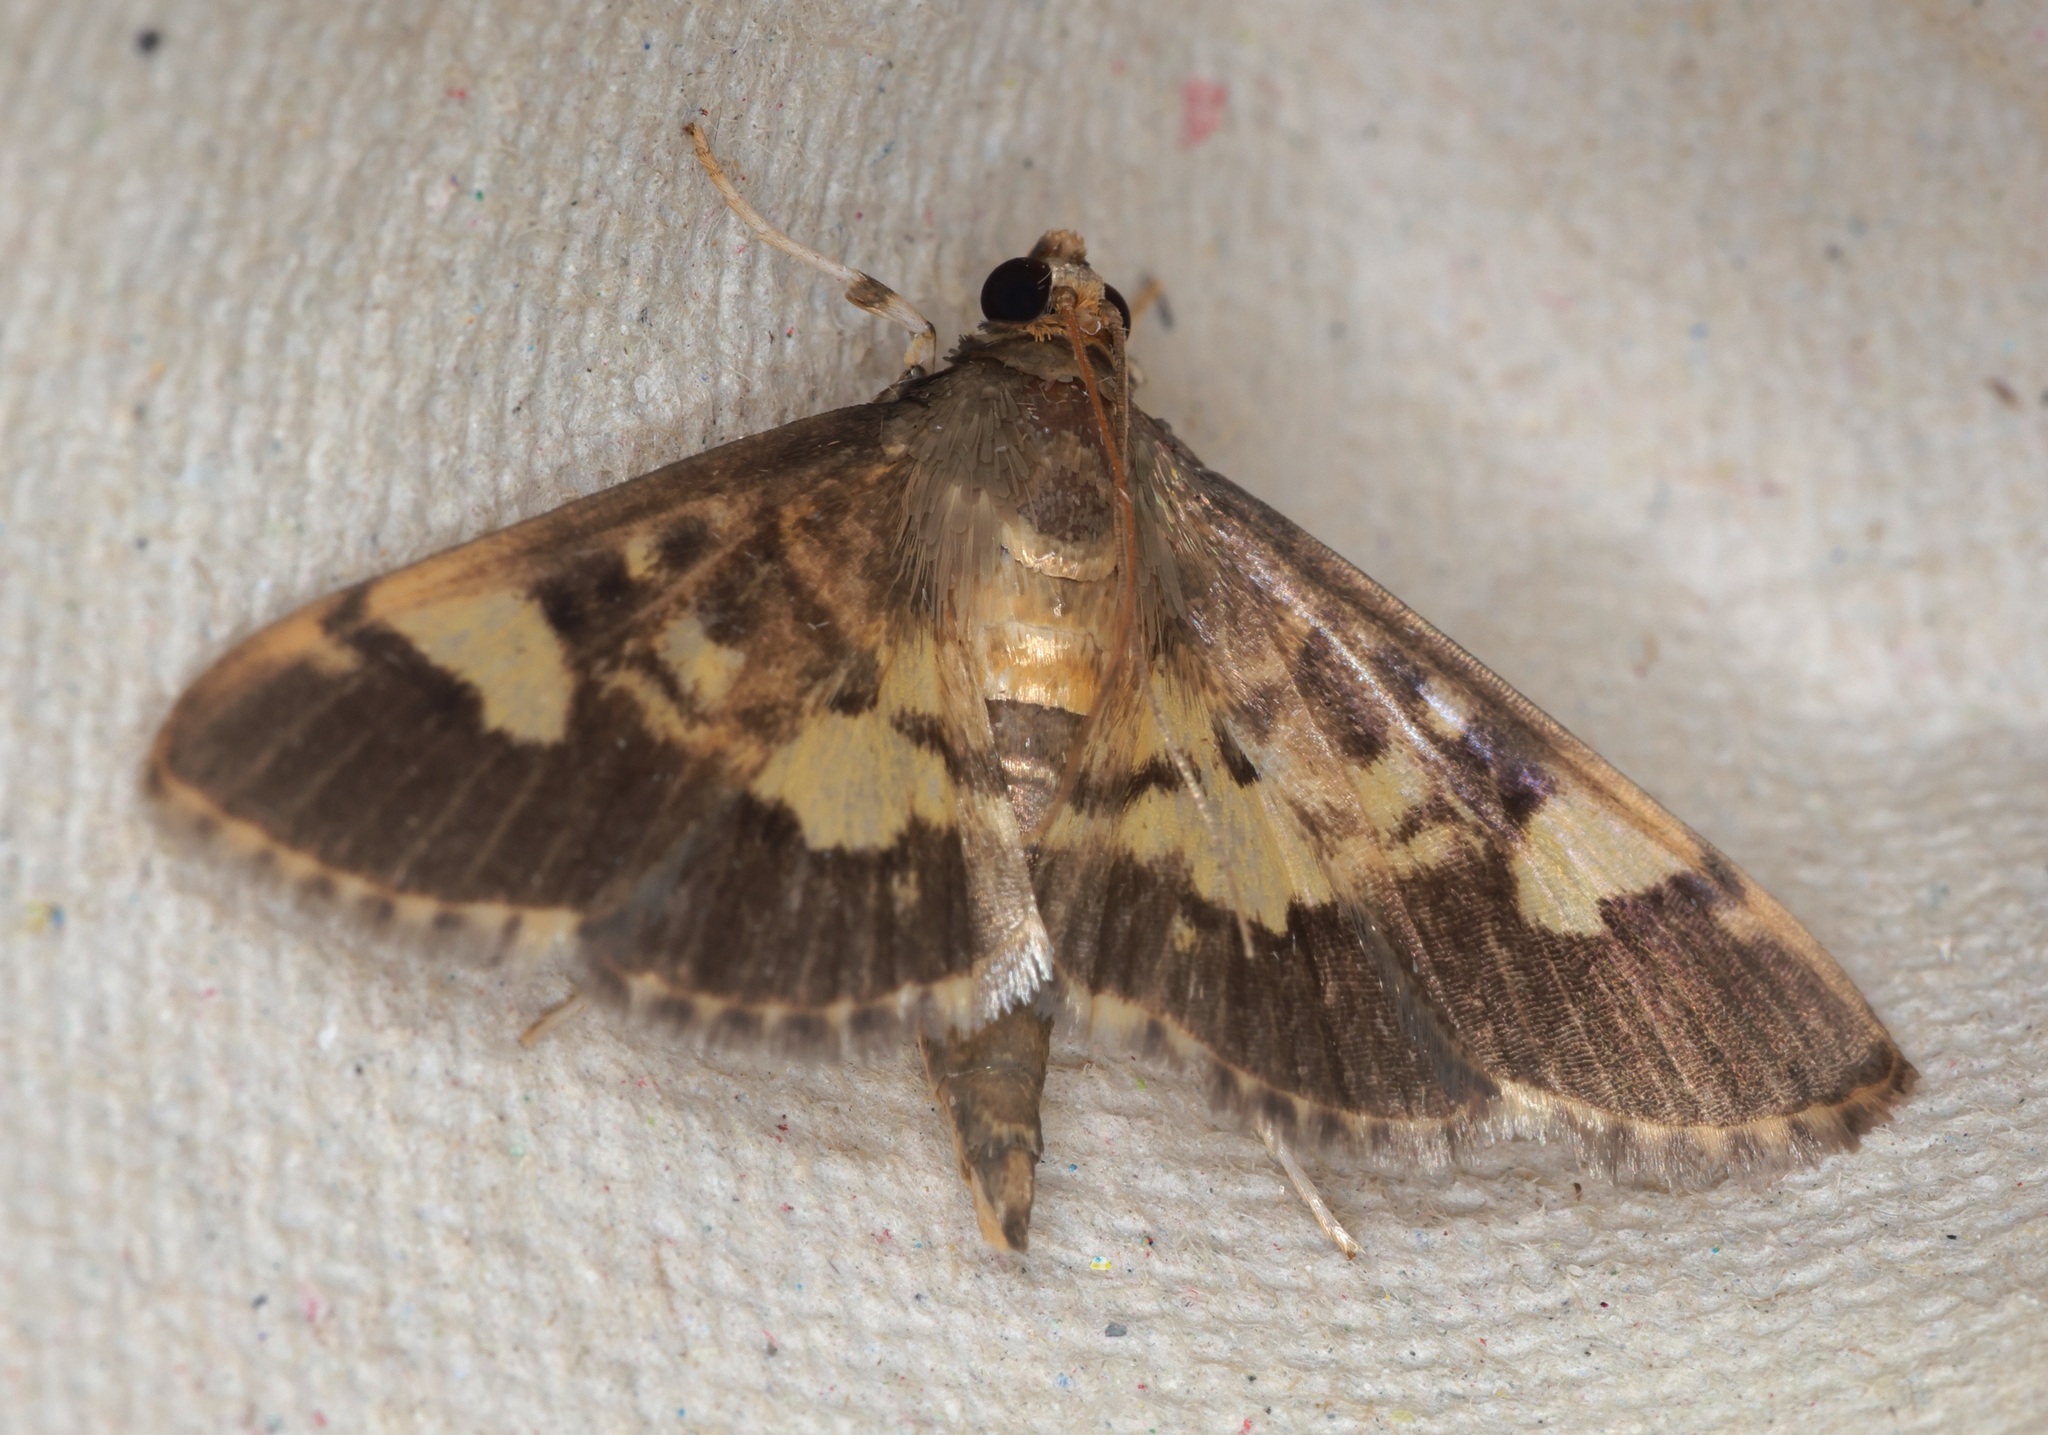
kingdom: Animalia
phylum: Arthropoda
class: Insecta
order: Lepidoptera
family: Crambidae
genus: Bocchoris
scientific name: Bocchoris aptalis
